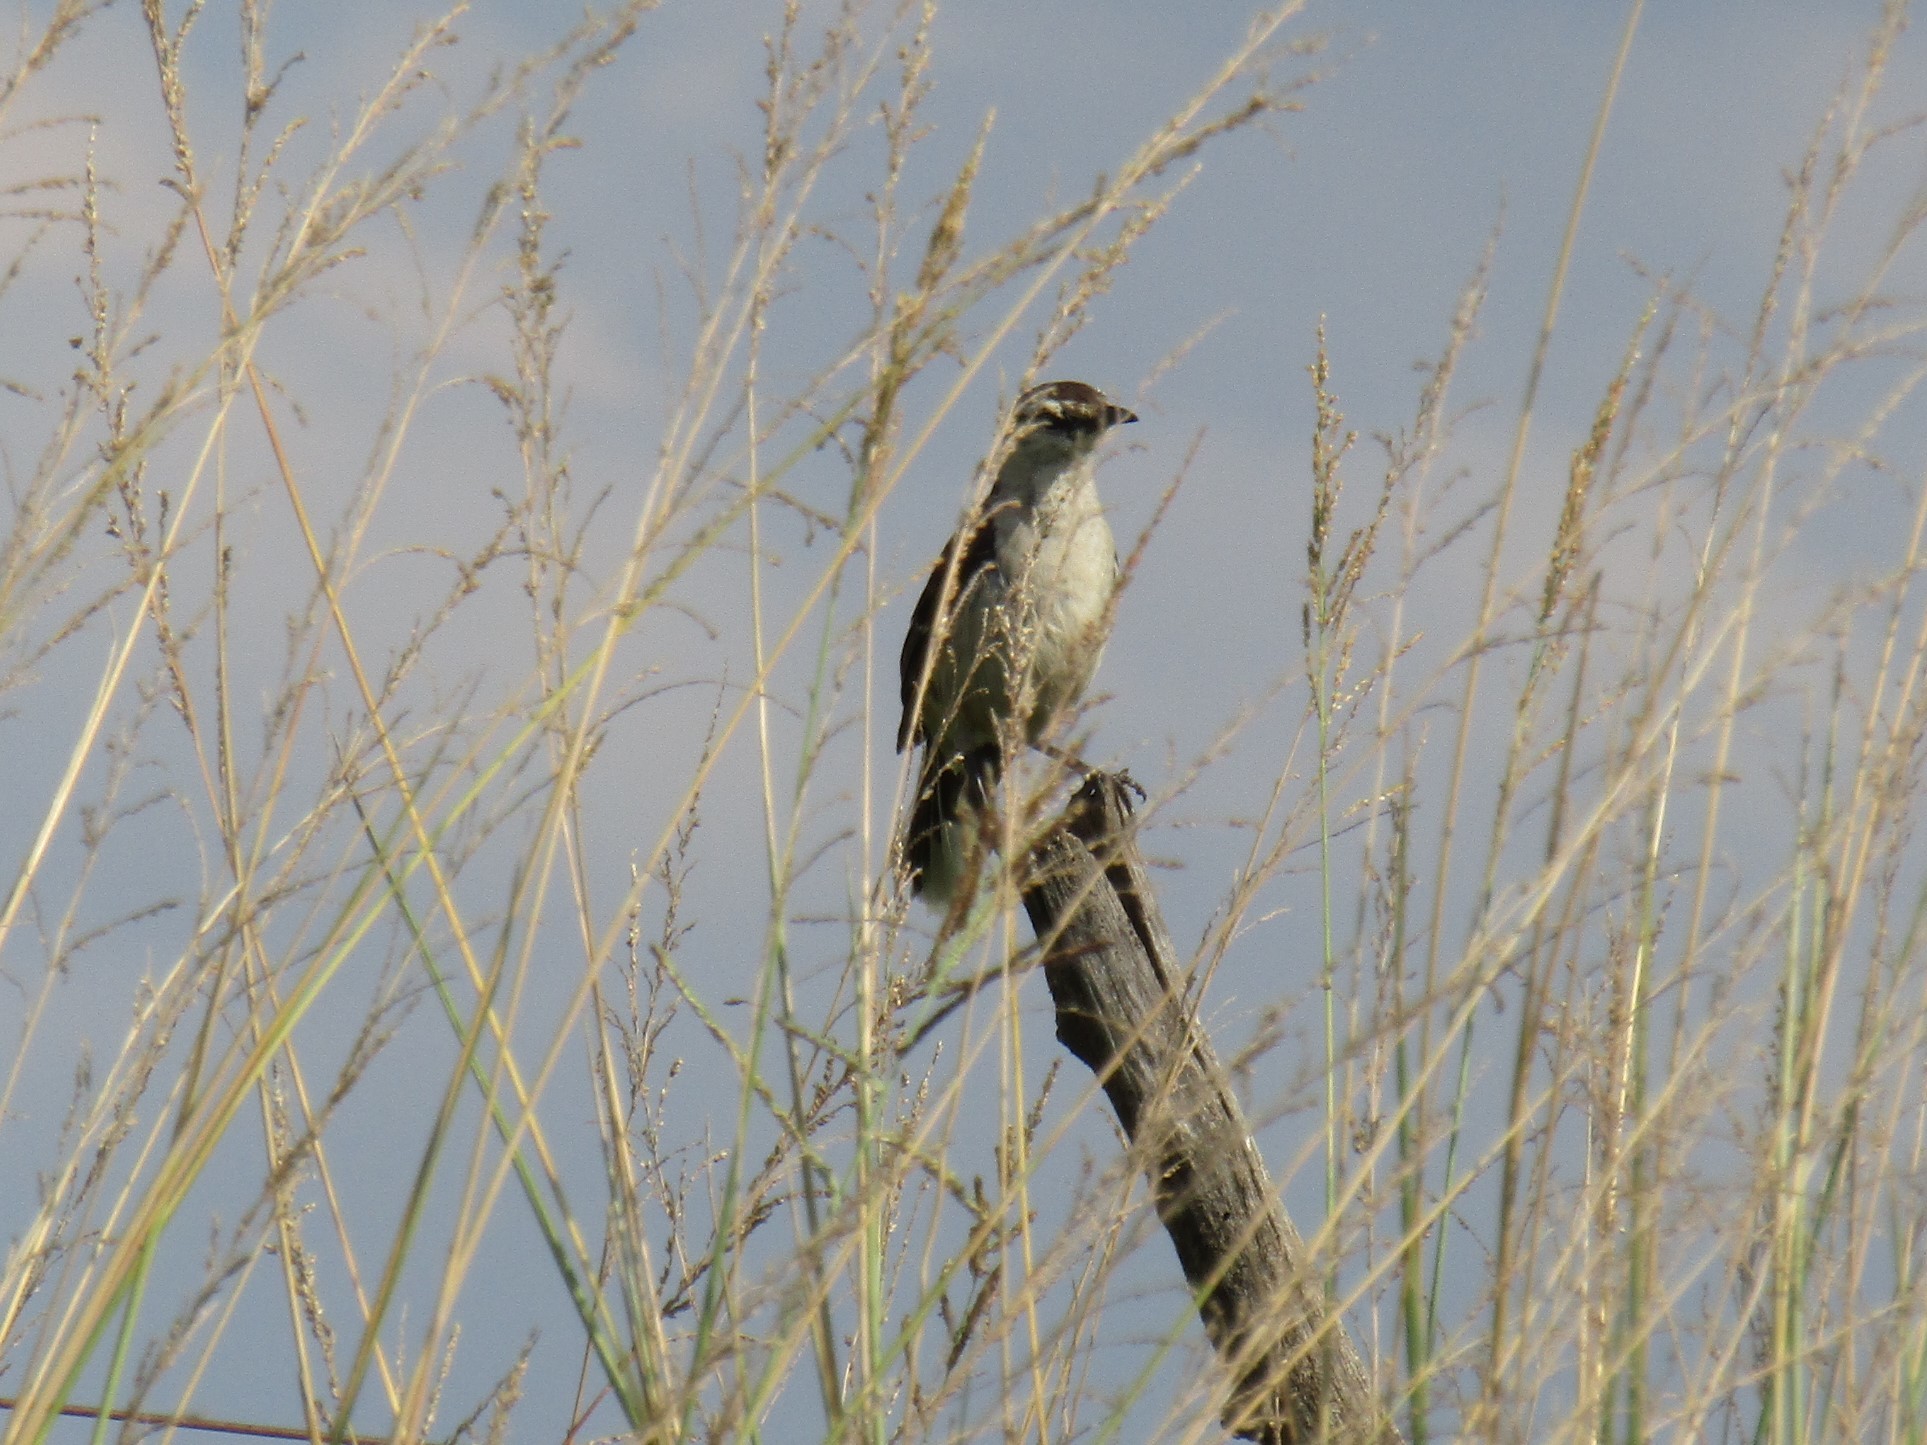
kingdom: Animalia
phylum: Chordata
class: Aves
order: Passeriformes
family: Mimidae
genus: Mimus
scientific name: Mimus saturninus
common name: Chalk-browed mockingbird
